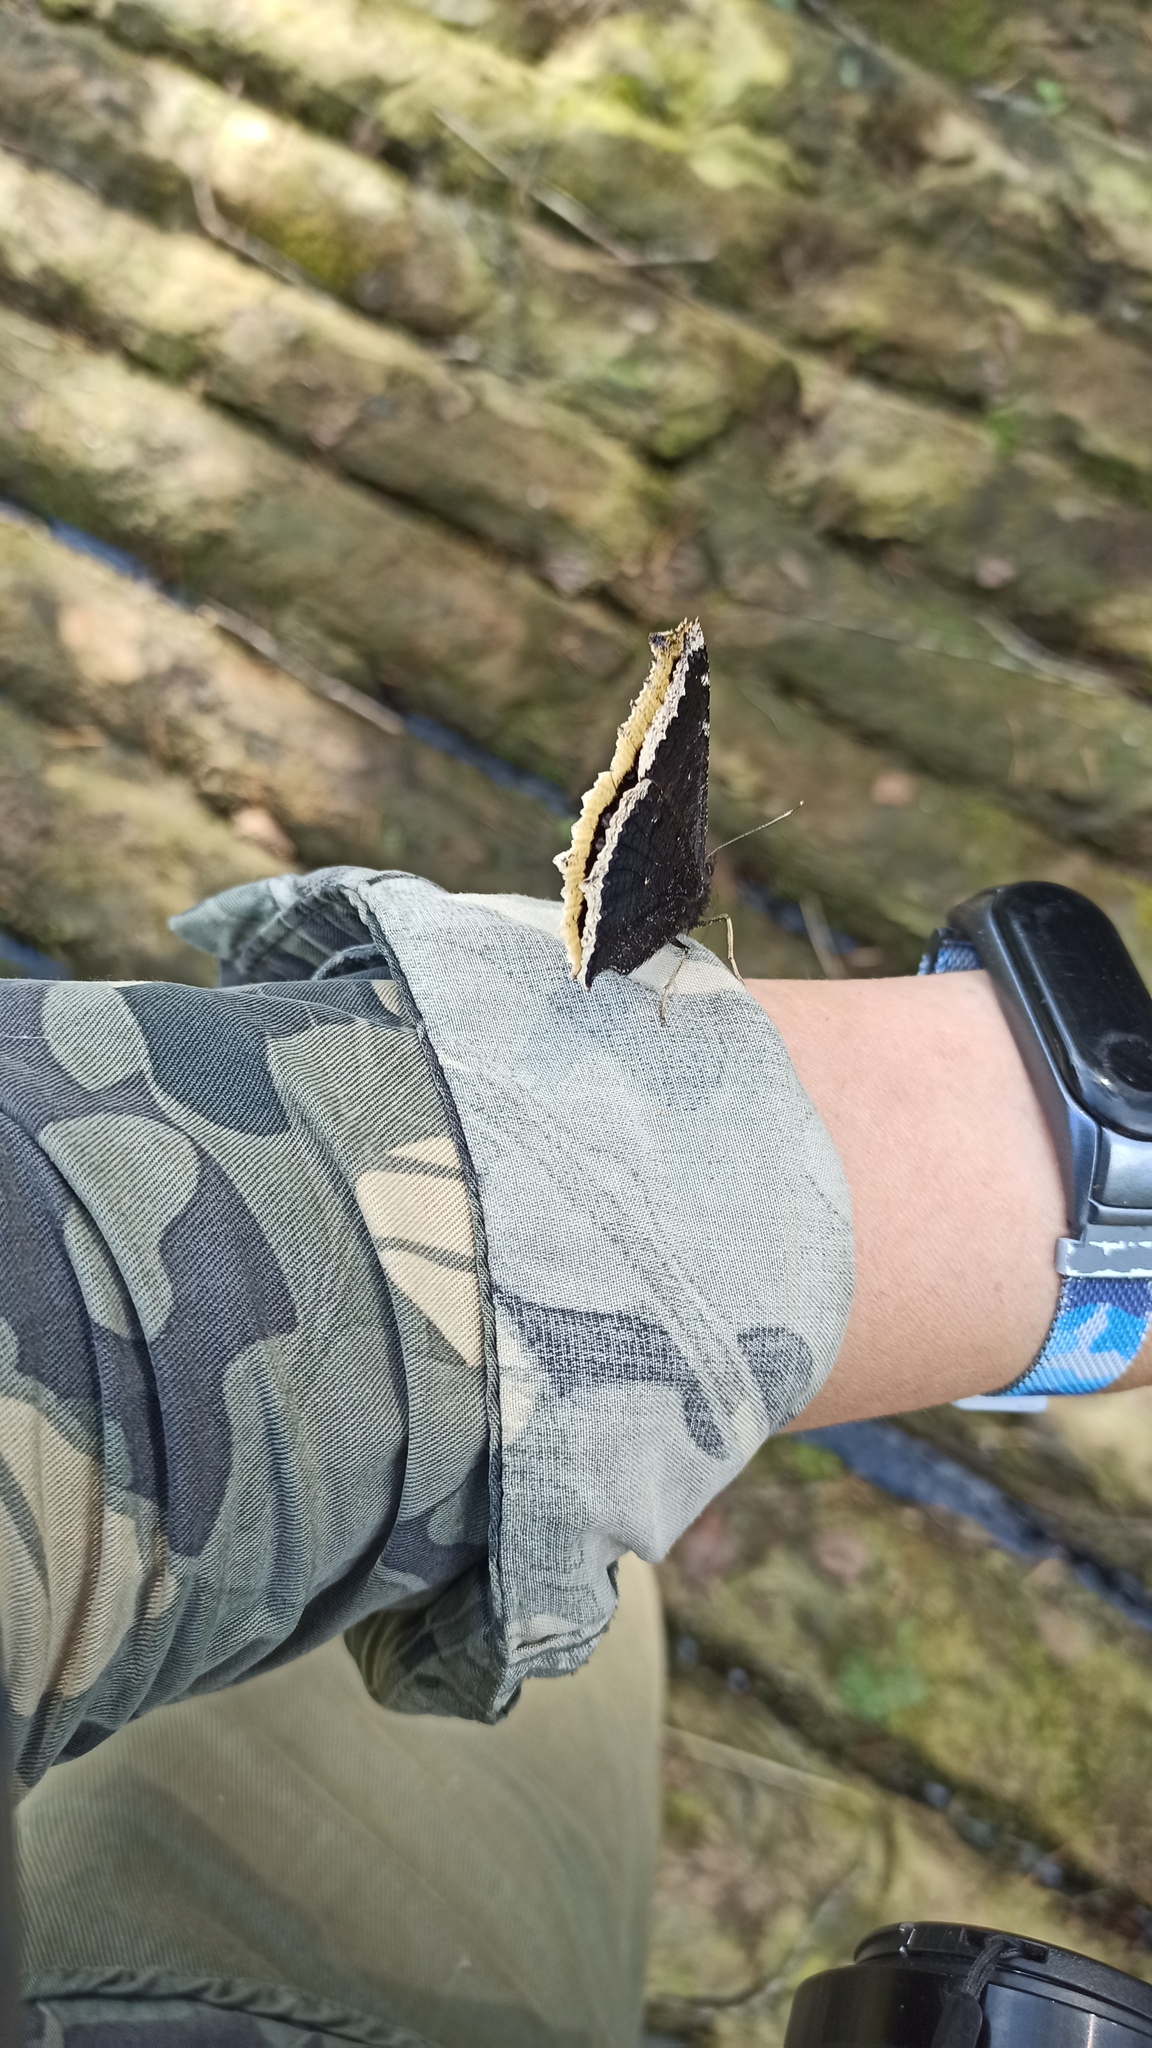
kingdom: Animalia
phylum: Arthropoda
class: Insecta
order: Lepidoptera
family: Nymphalidae
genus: Nymphalis
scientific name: Nymphalis antiopa
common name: Camberwell beauty
